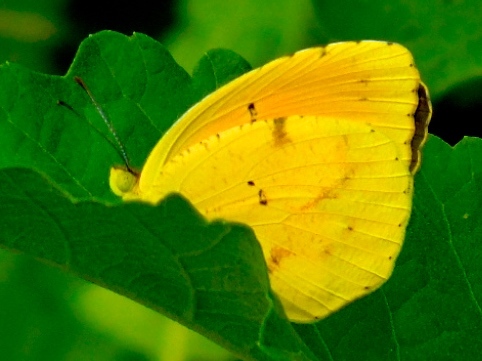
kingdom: Animalia
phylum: Arthropoda
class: Insecta
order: Lepidoptera
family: Pieridae
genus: Abaeis
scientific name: Abaeis nicippe
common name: Sleepy orange
